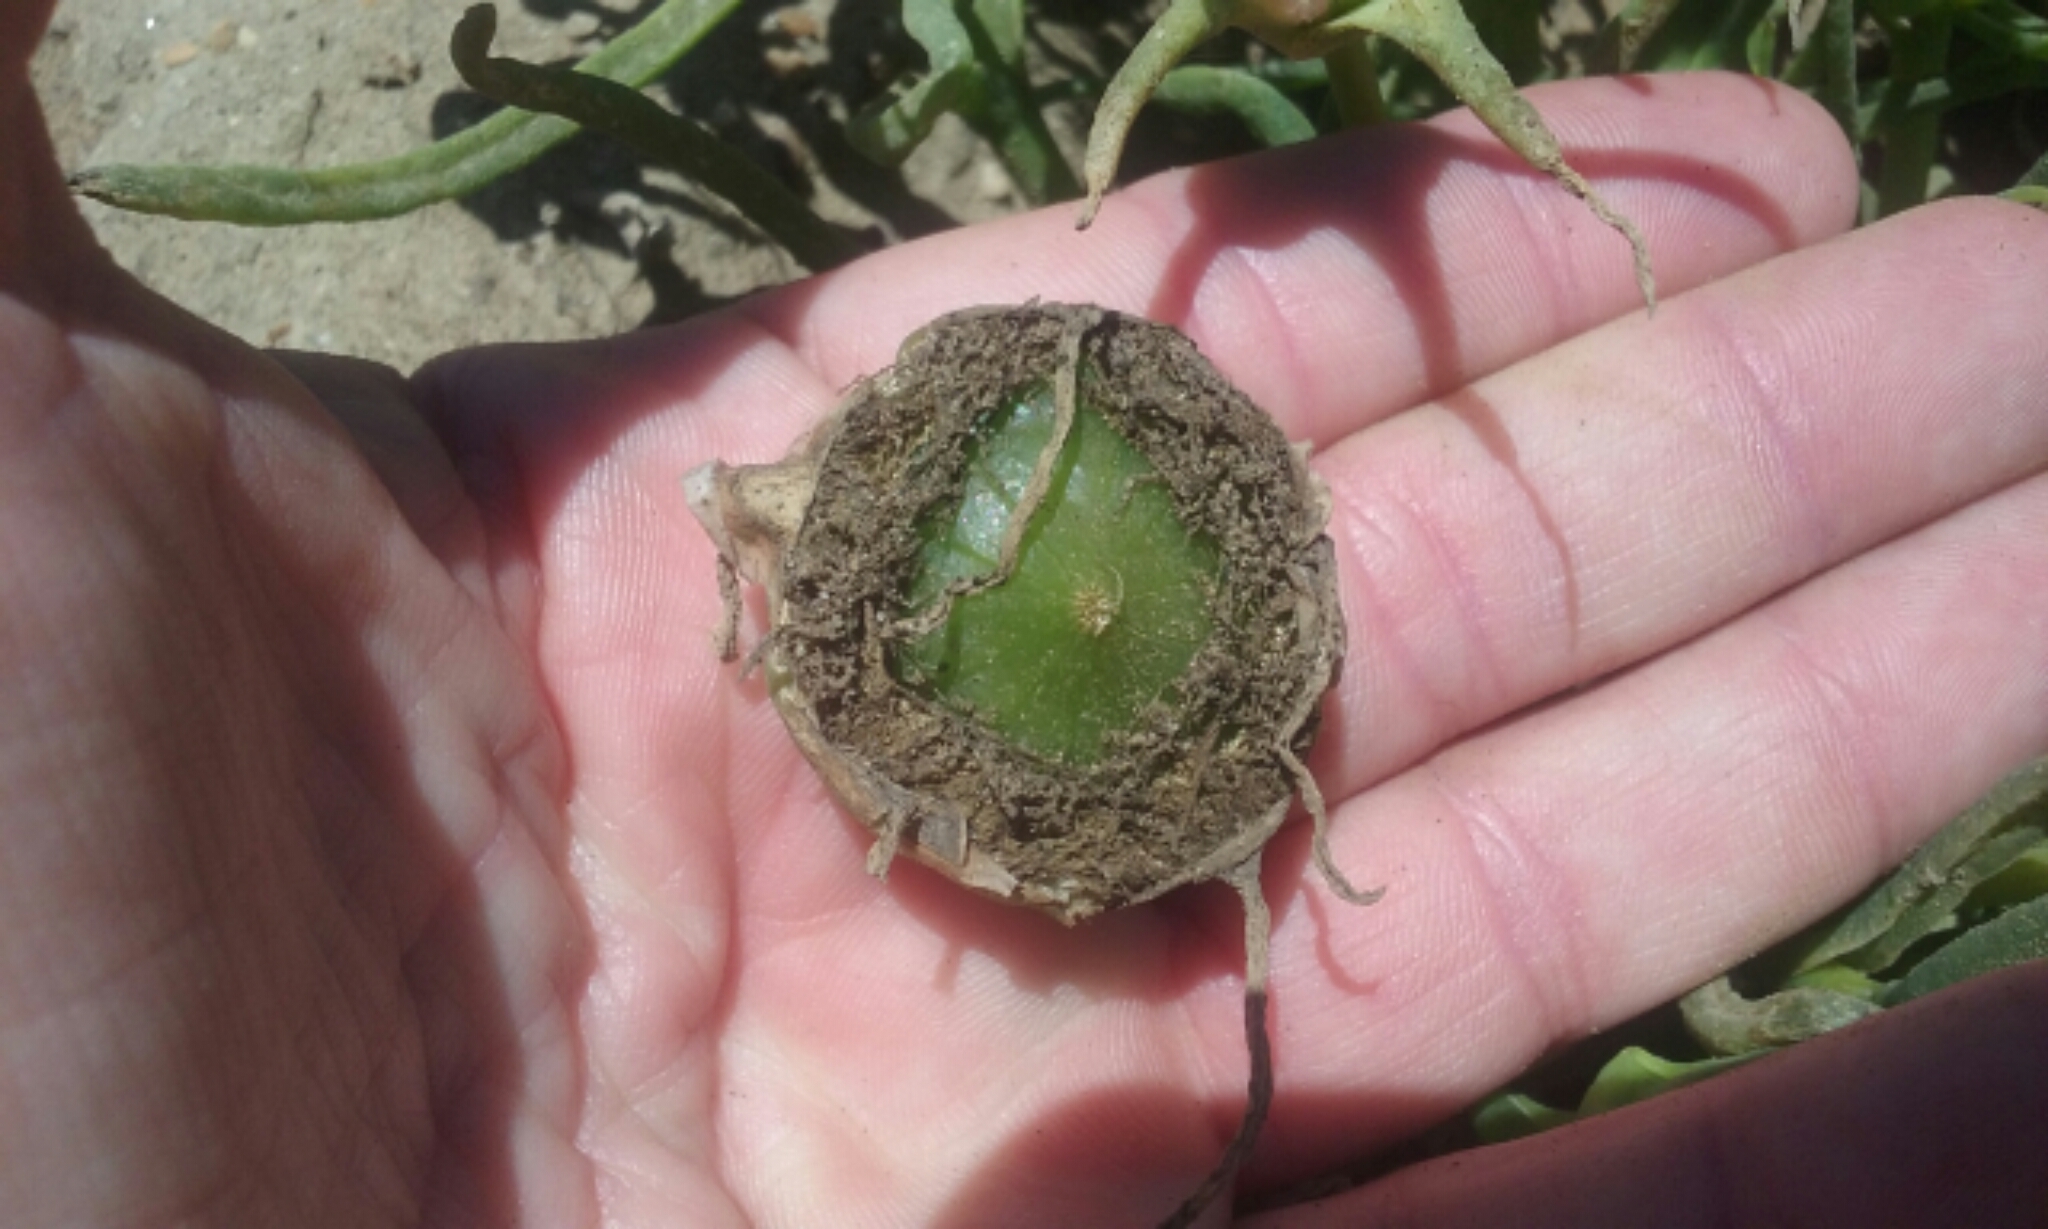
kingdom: Plantae
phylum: Tracheophyta
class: Magnoliopsida
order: Caryophyllales
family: Aizoaceae
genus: Conicosia
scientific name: Conicosia pugioniformis
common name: Narrow-leaved iceplant
